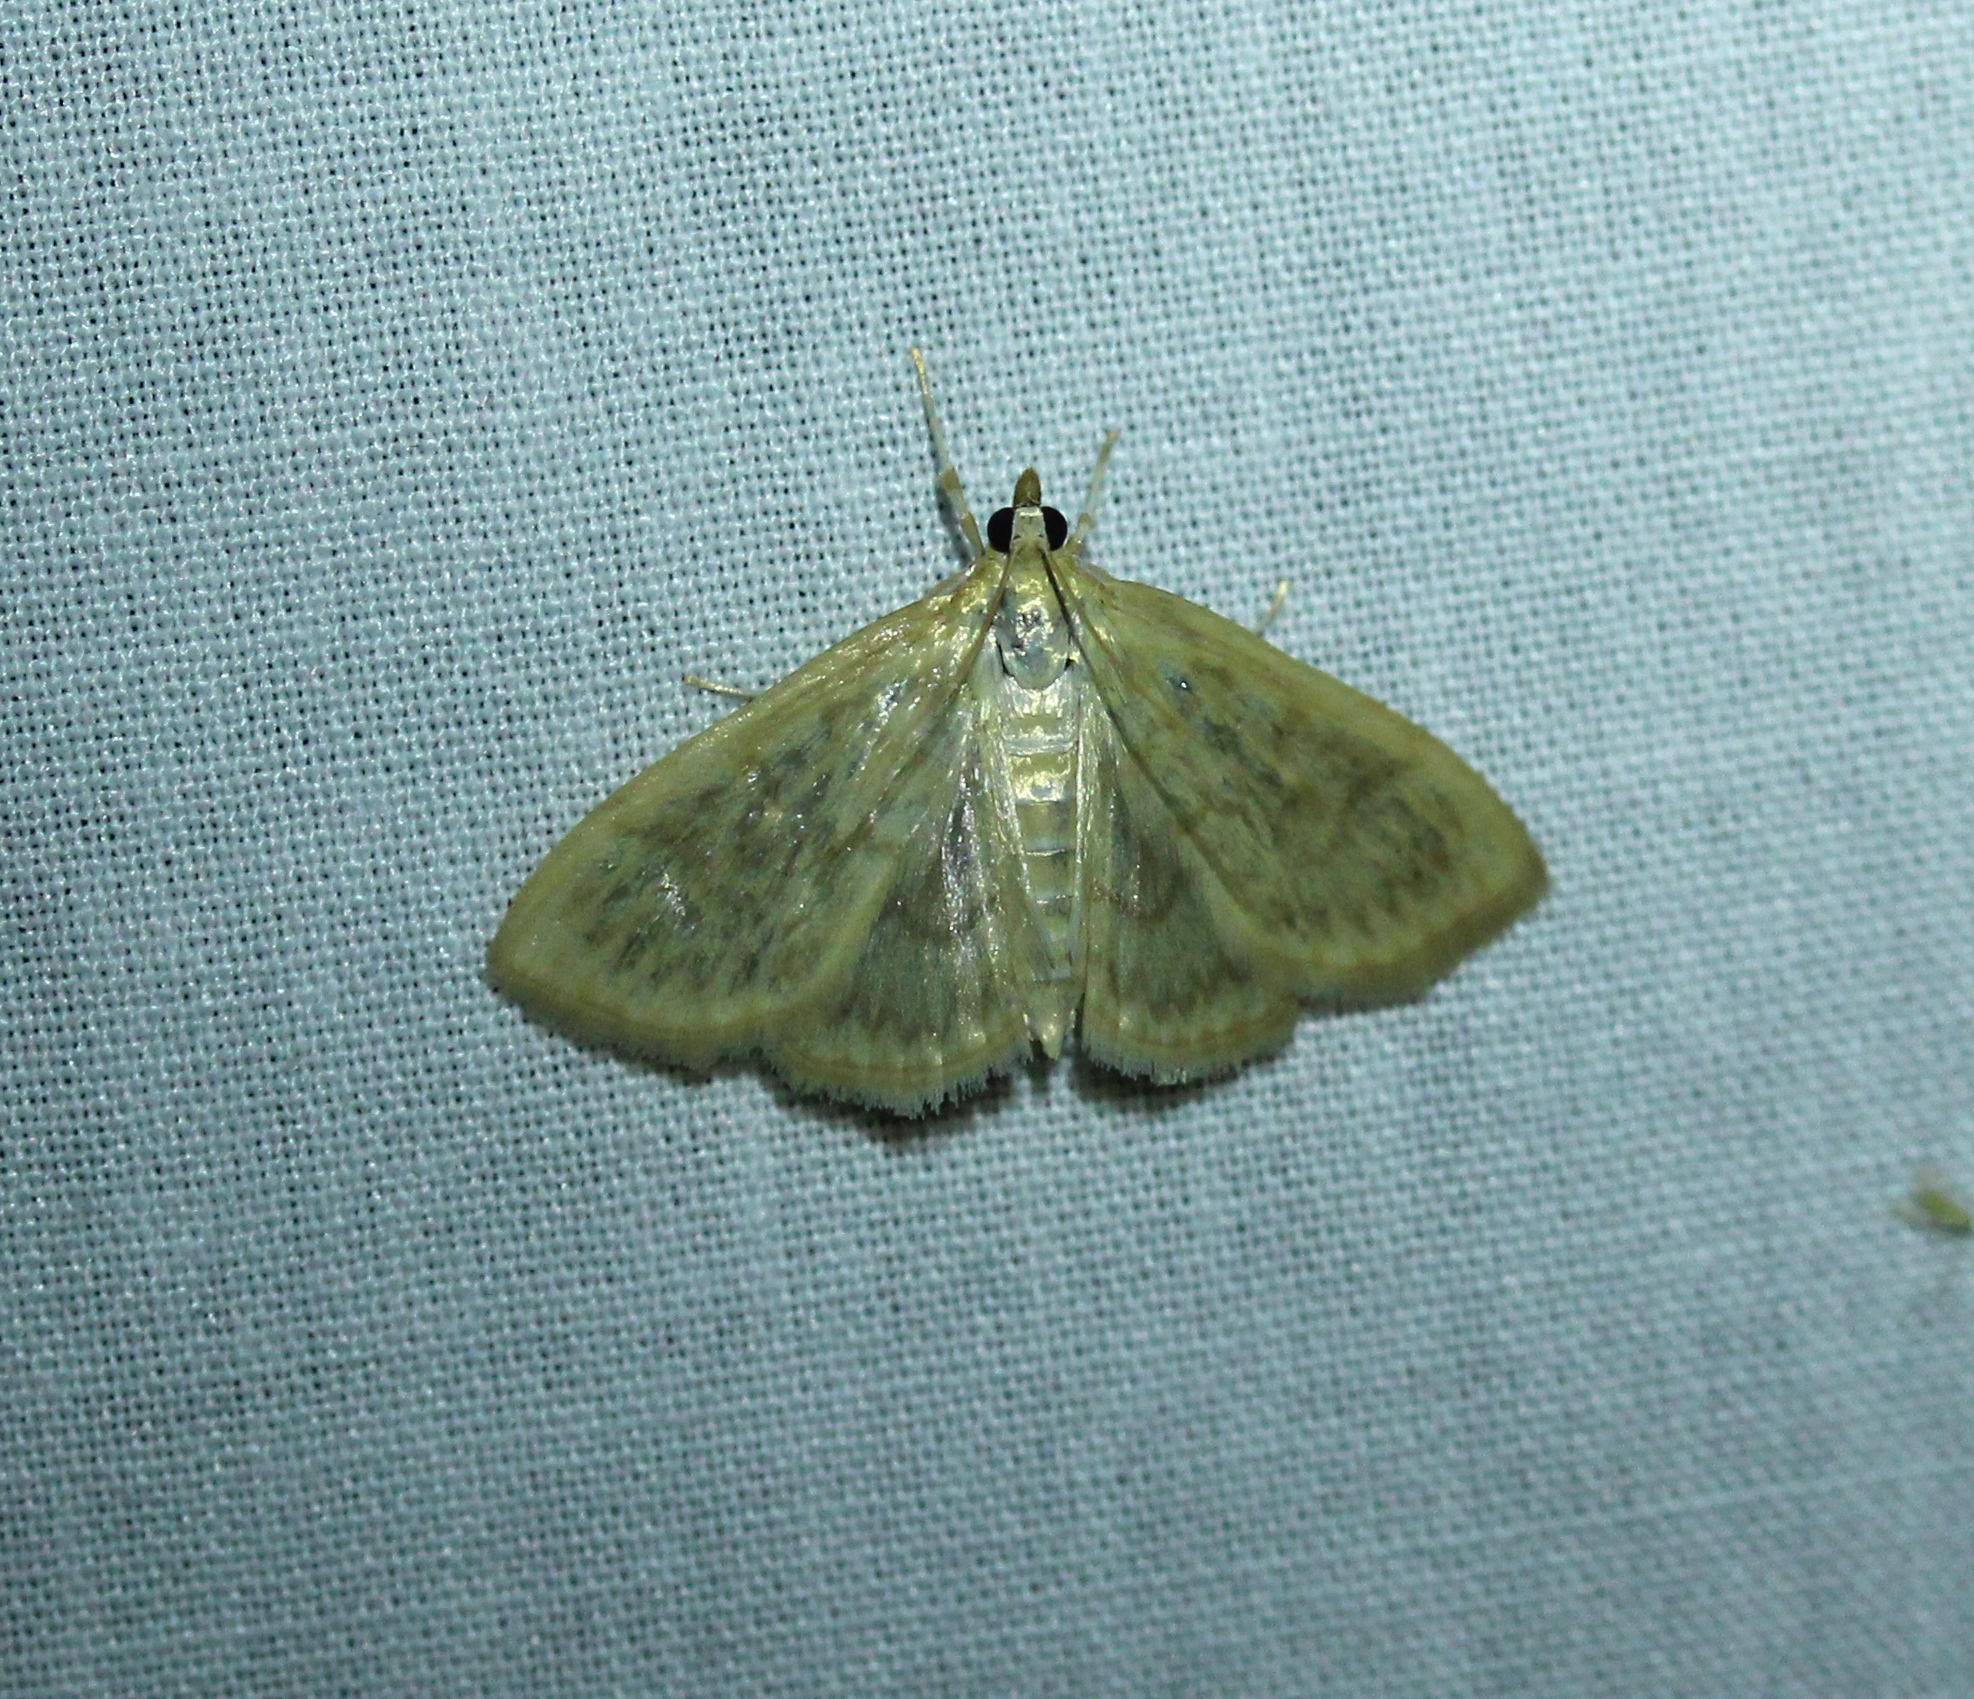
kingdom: Animalia
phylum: Arthropoda
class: Insecta
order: Lepidoptera
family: Crambidae
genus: Crocidophora
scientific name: Crocidophora serratissimalis
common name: Saw-toothed crocidophora moth
